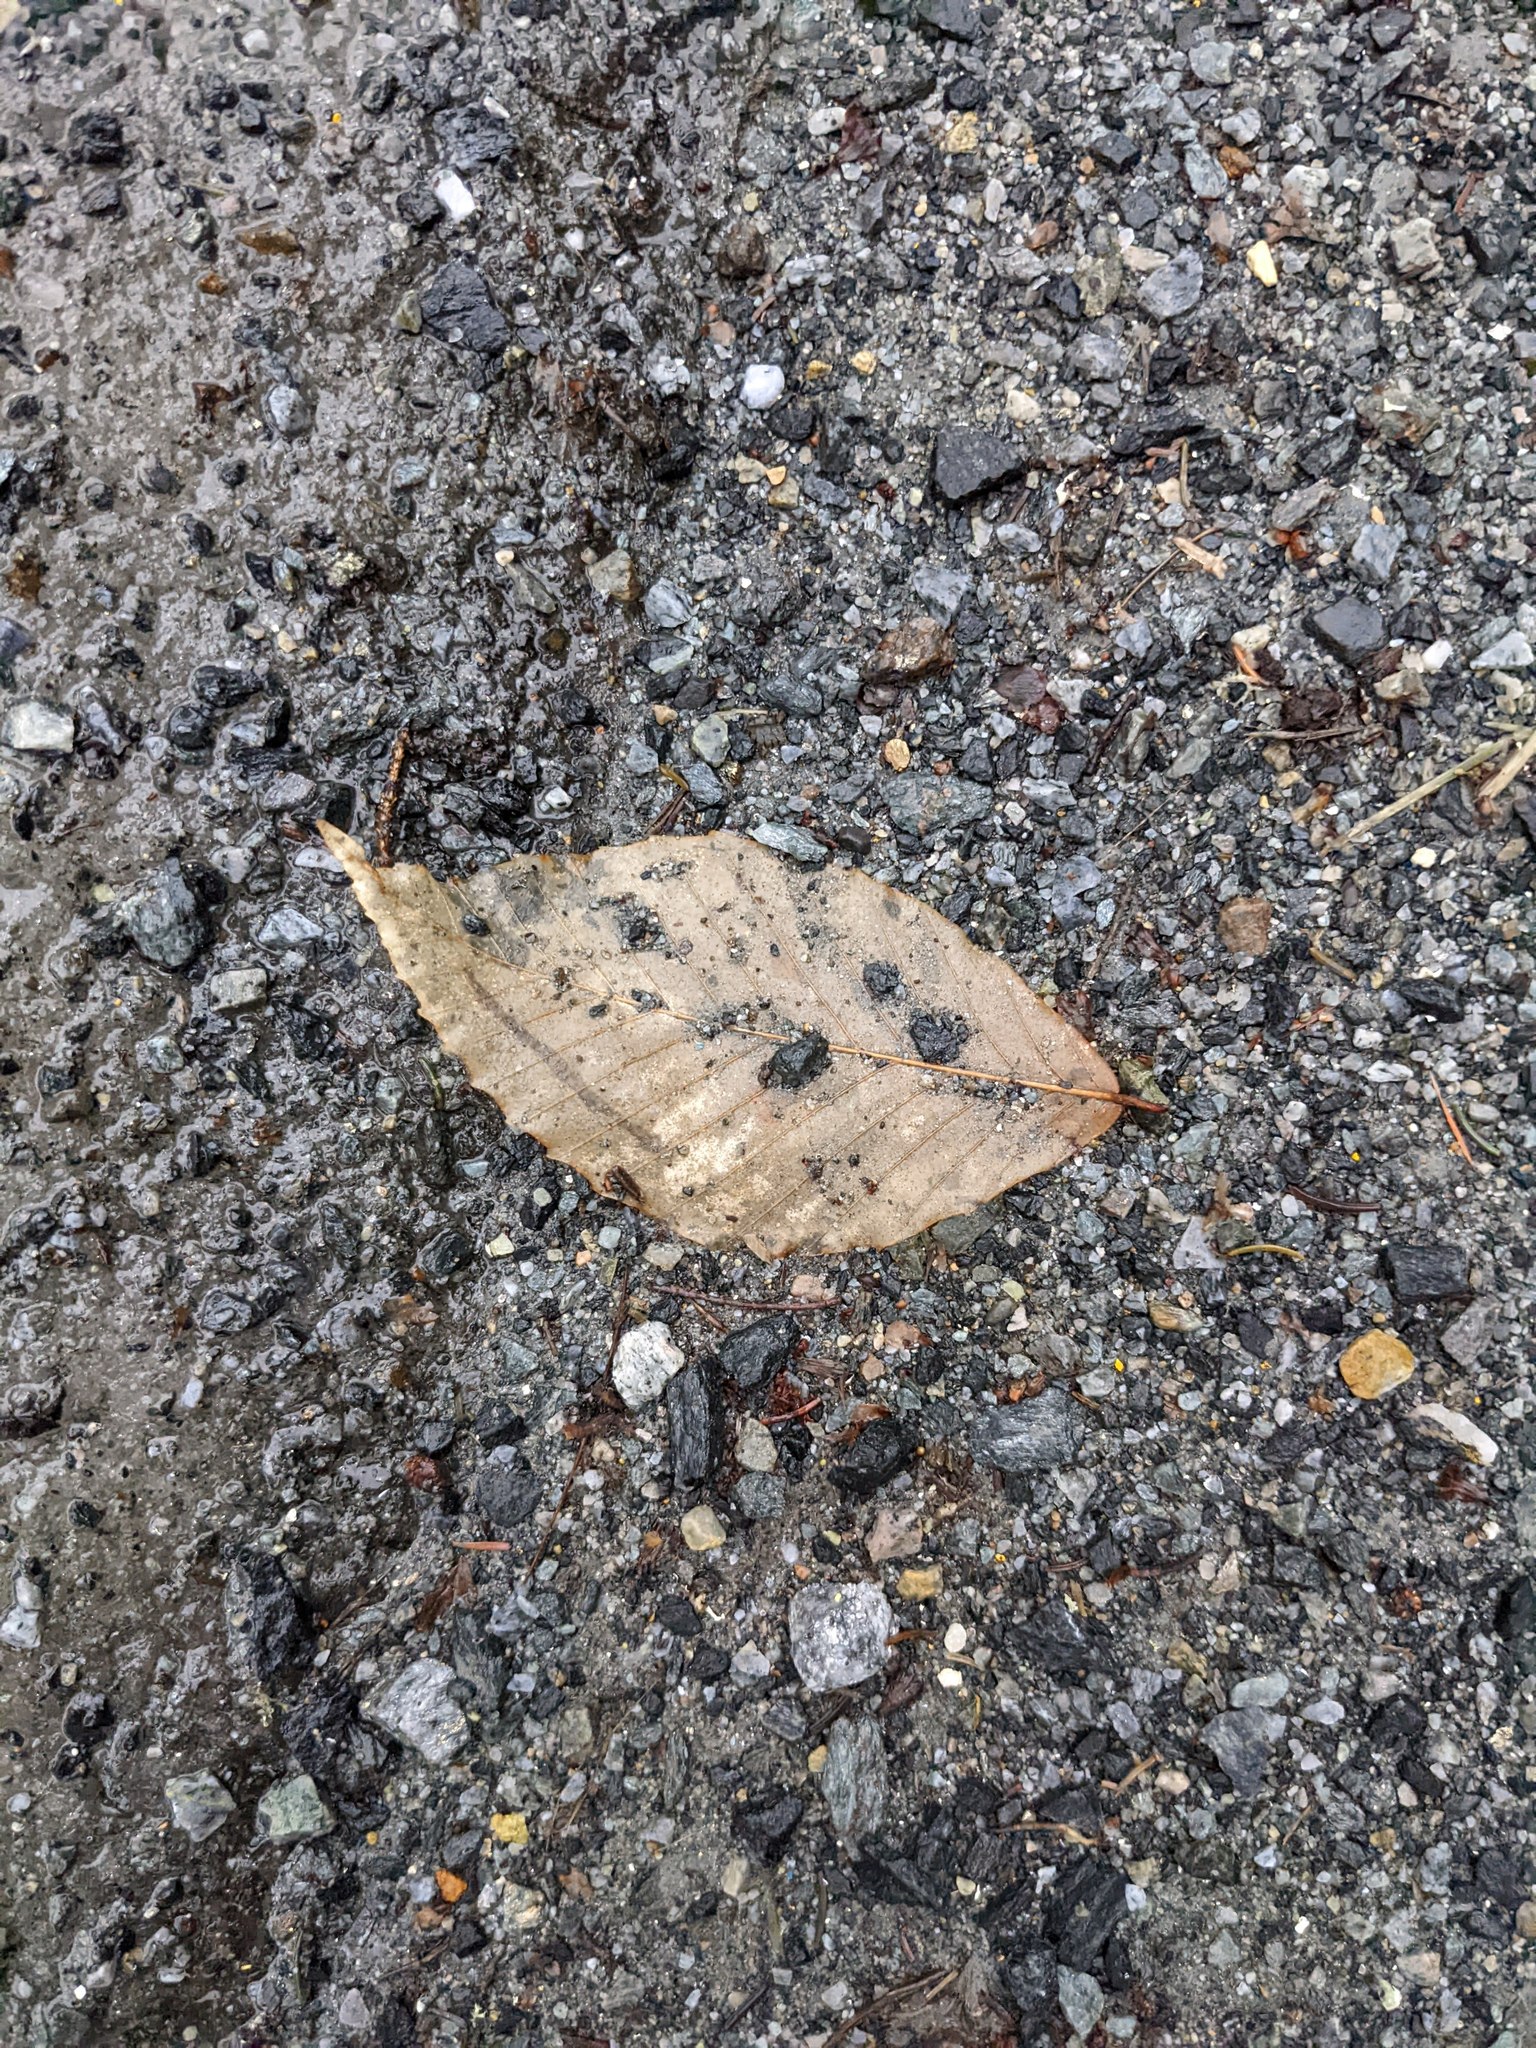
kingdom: Plantae
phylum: Tracheophyta
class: Magnoliopsida
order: Fagales
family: Fagaceae
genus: Fagus
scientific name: Fagus grandifolia
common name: American beech
